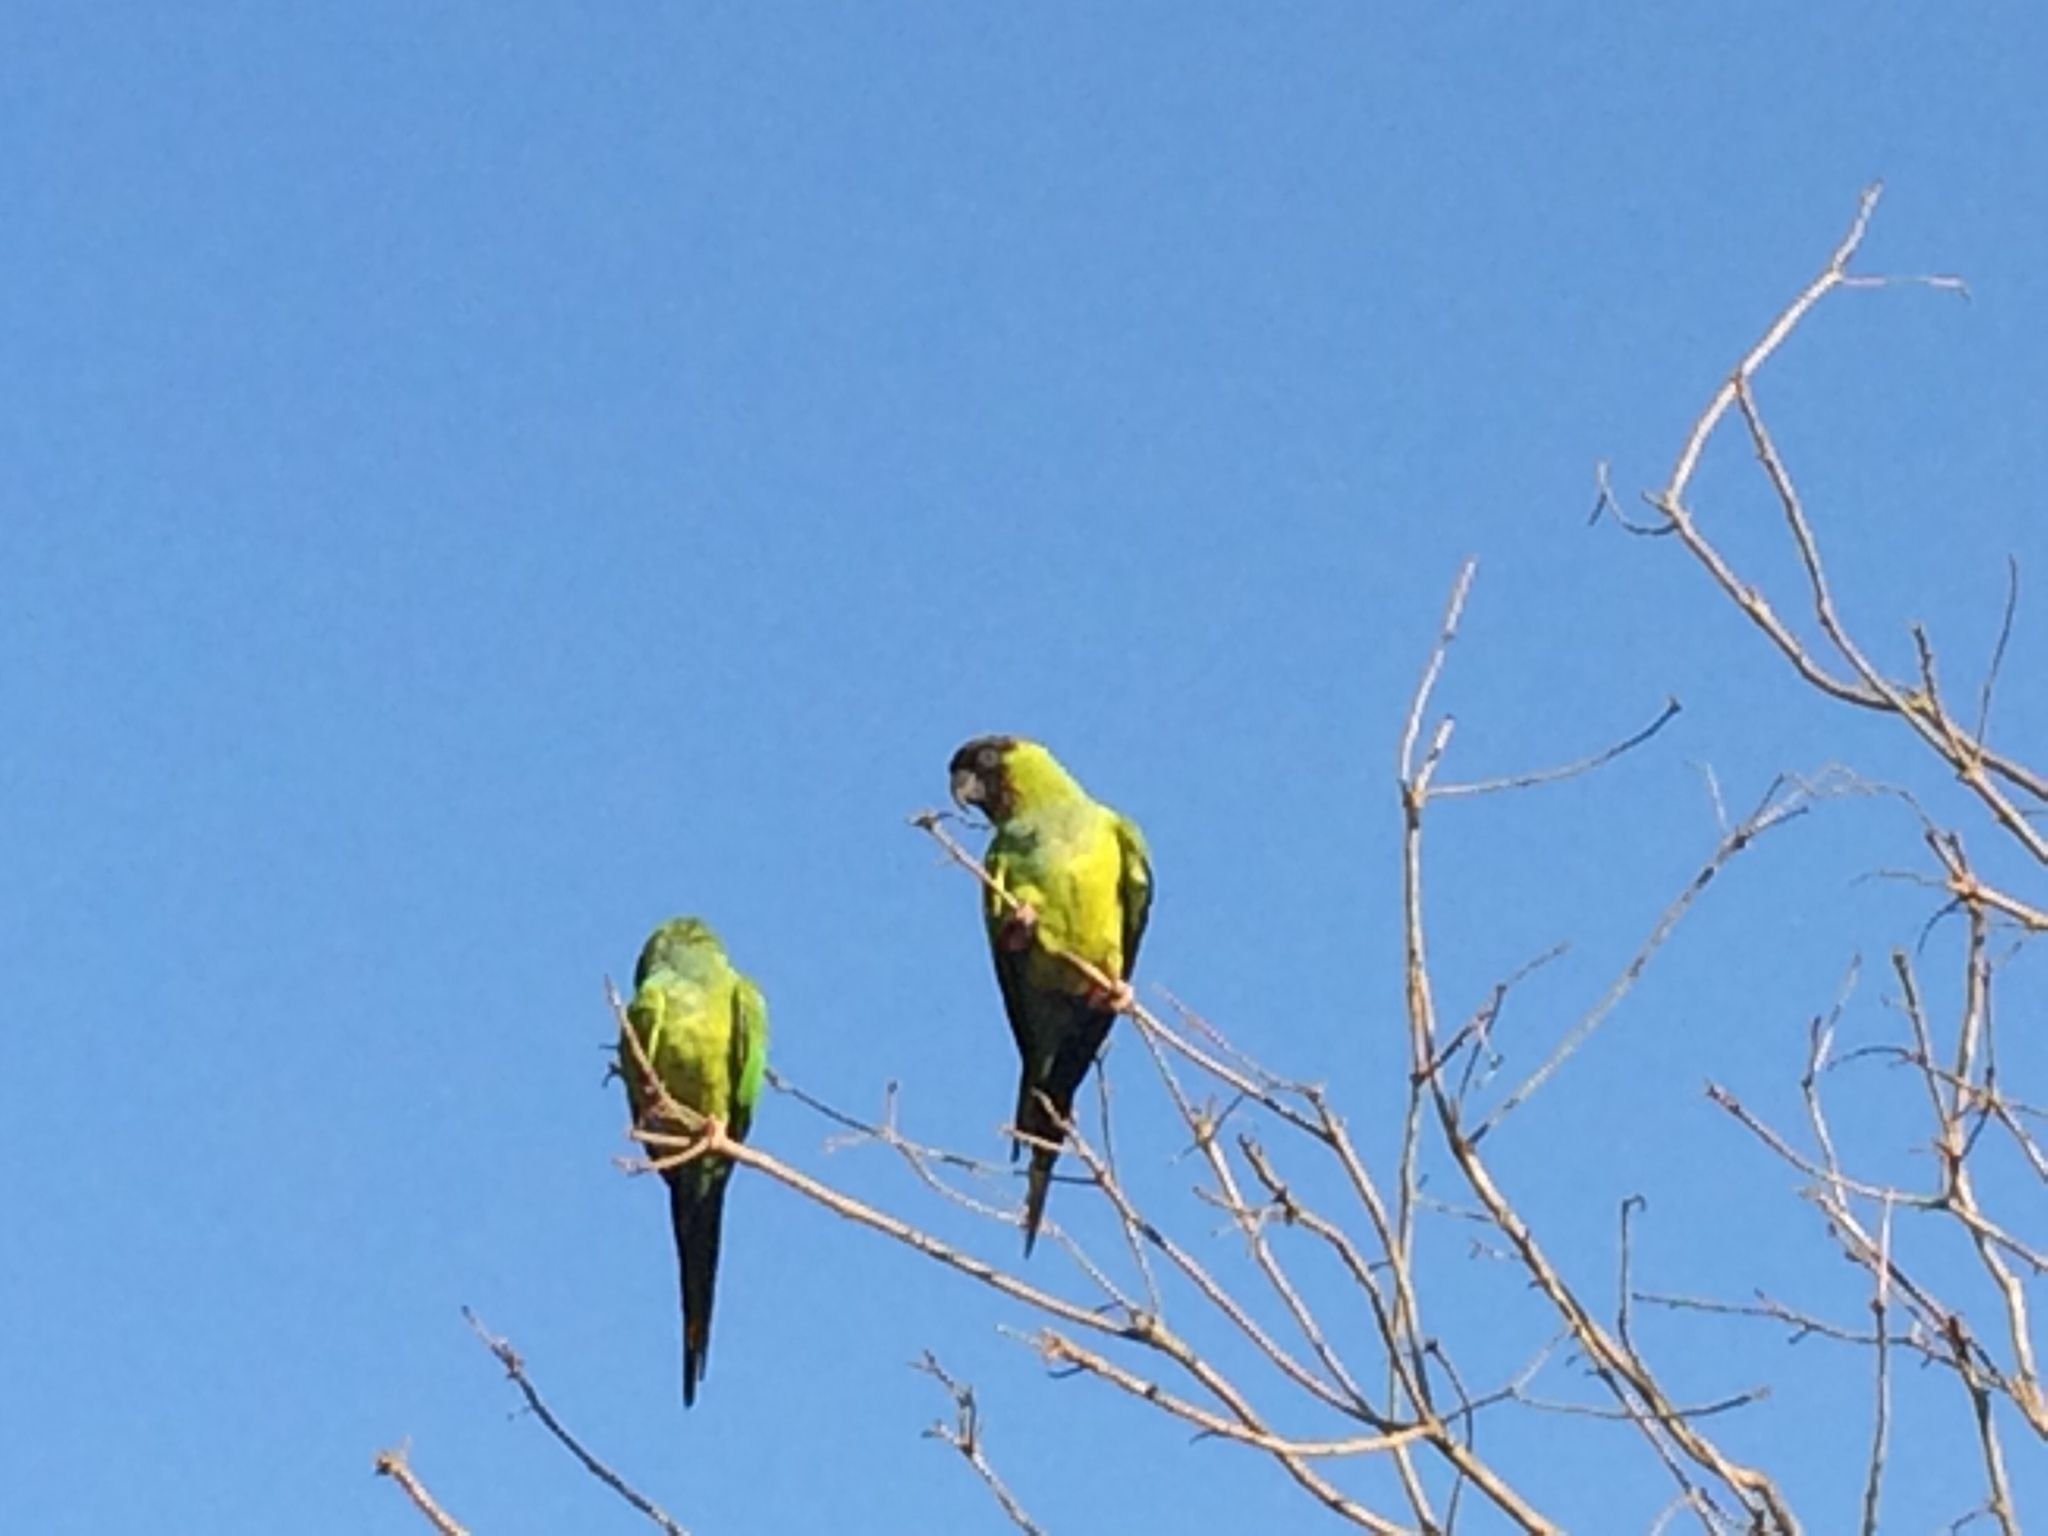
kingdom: Animalia
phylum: Chordata
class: Aves
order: Psittaciformes
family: Psittacidae
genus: Nandayus
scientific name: Nandayus nenday
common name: Nanday parakeet
